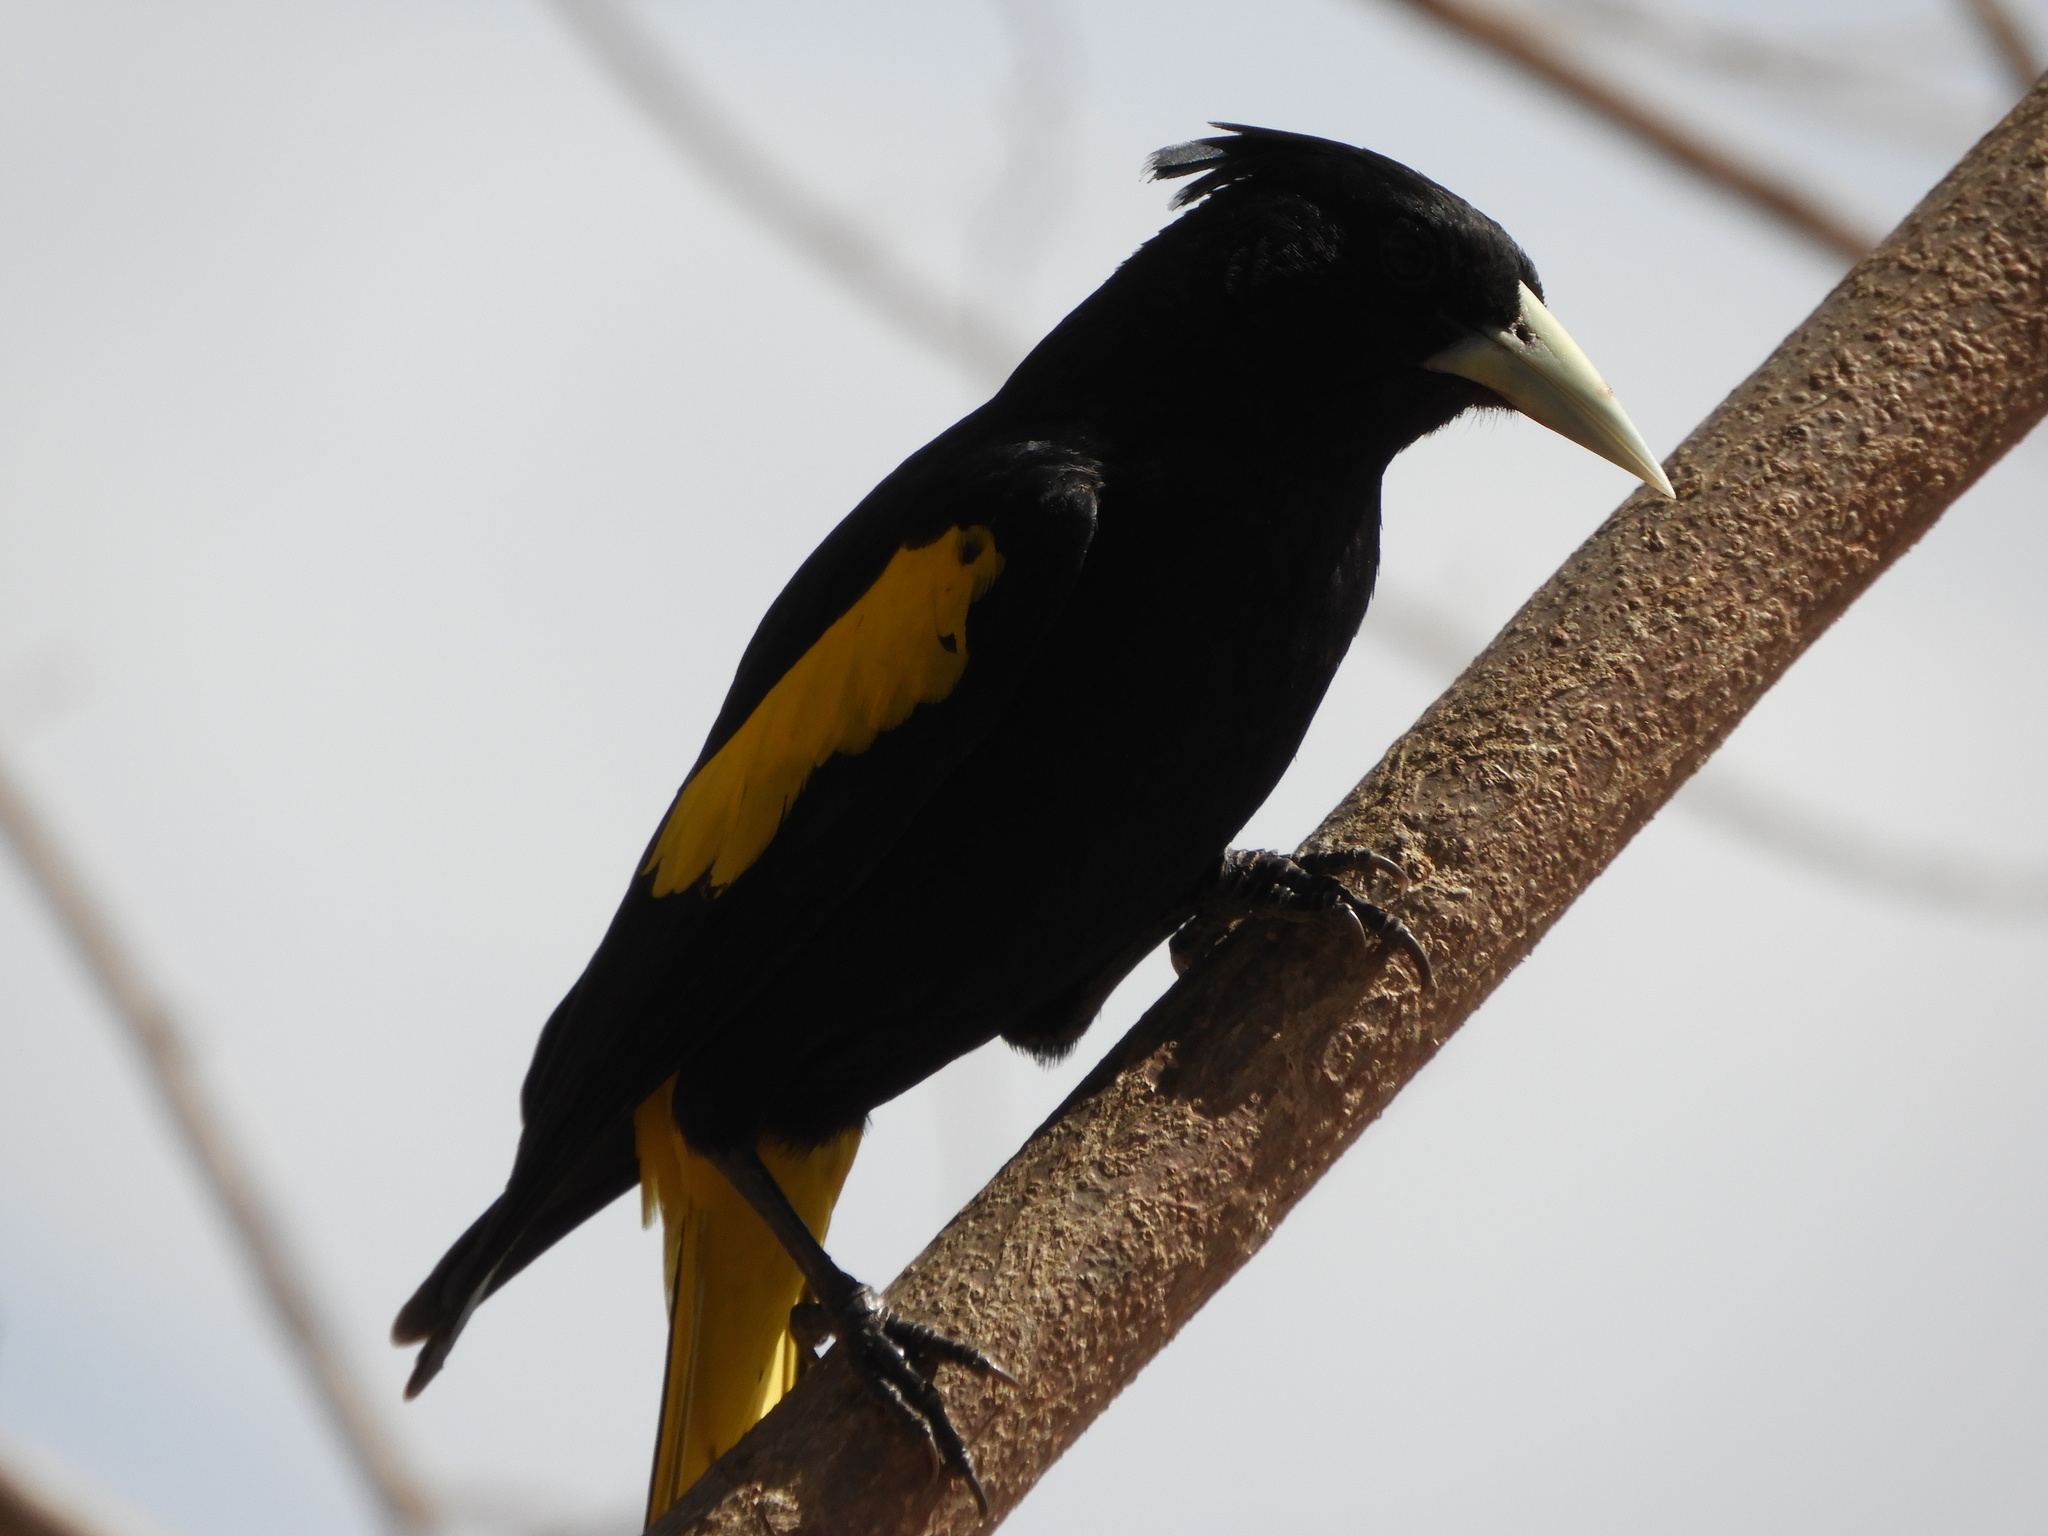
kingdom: Animalia
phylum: Chordata
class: Aves
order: Passeriformes
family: Icteridae
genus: Cacicus
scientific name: Cacicus melanicterus
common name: Yellow-winged cacique
